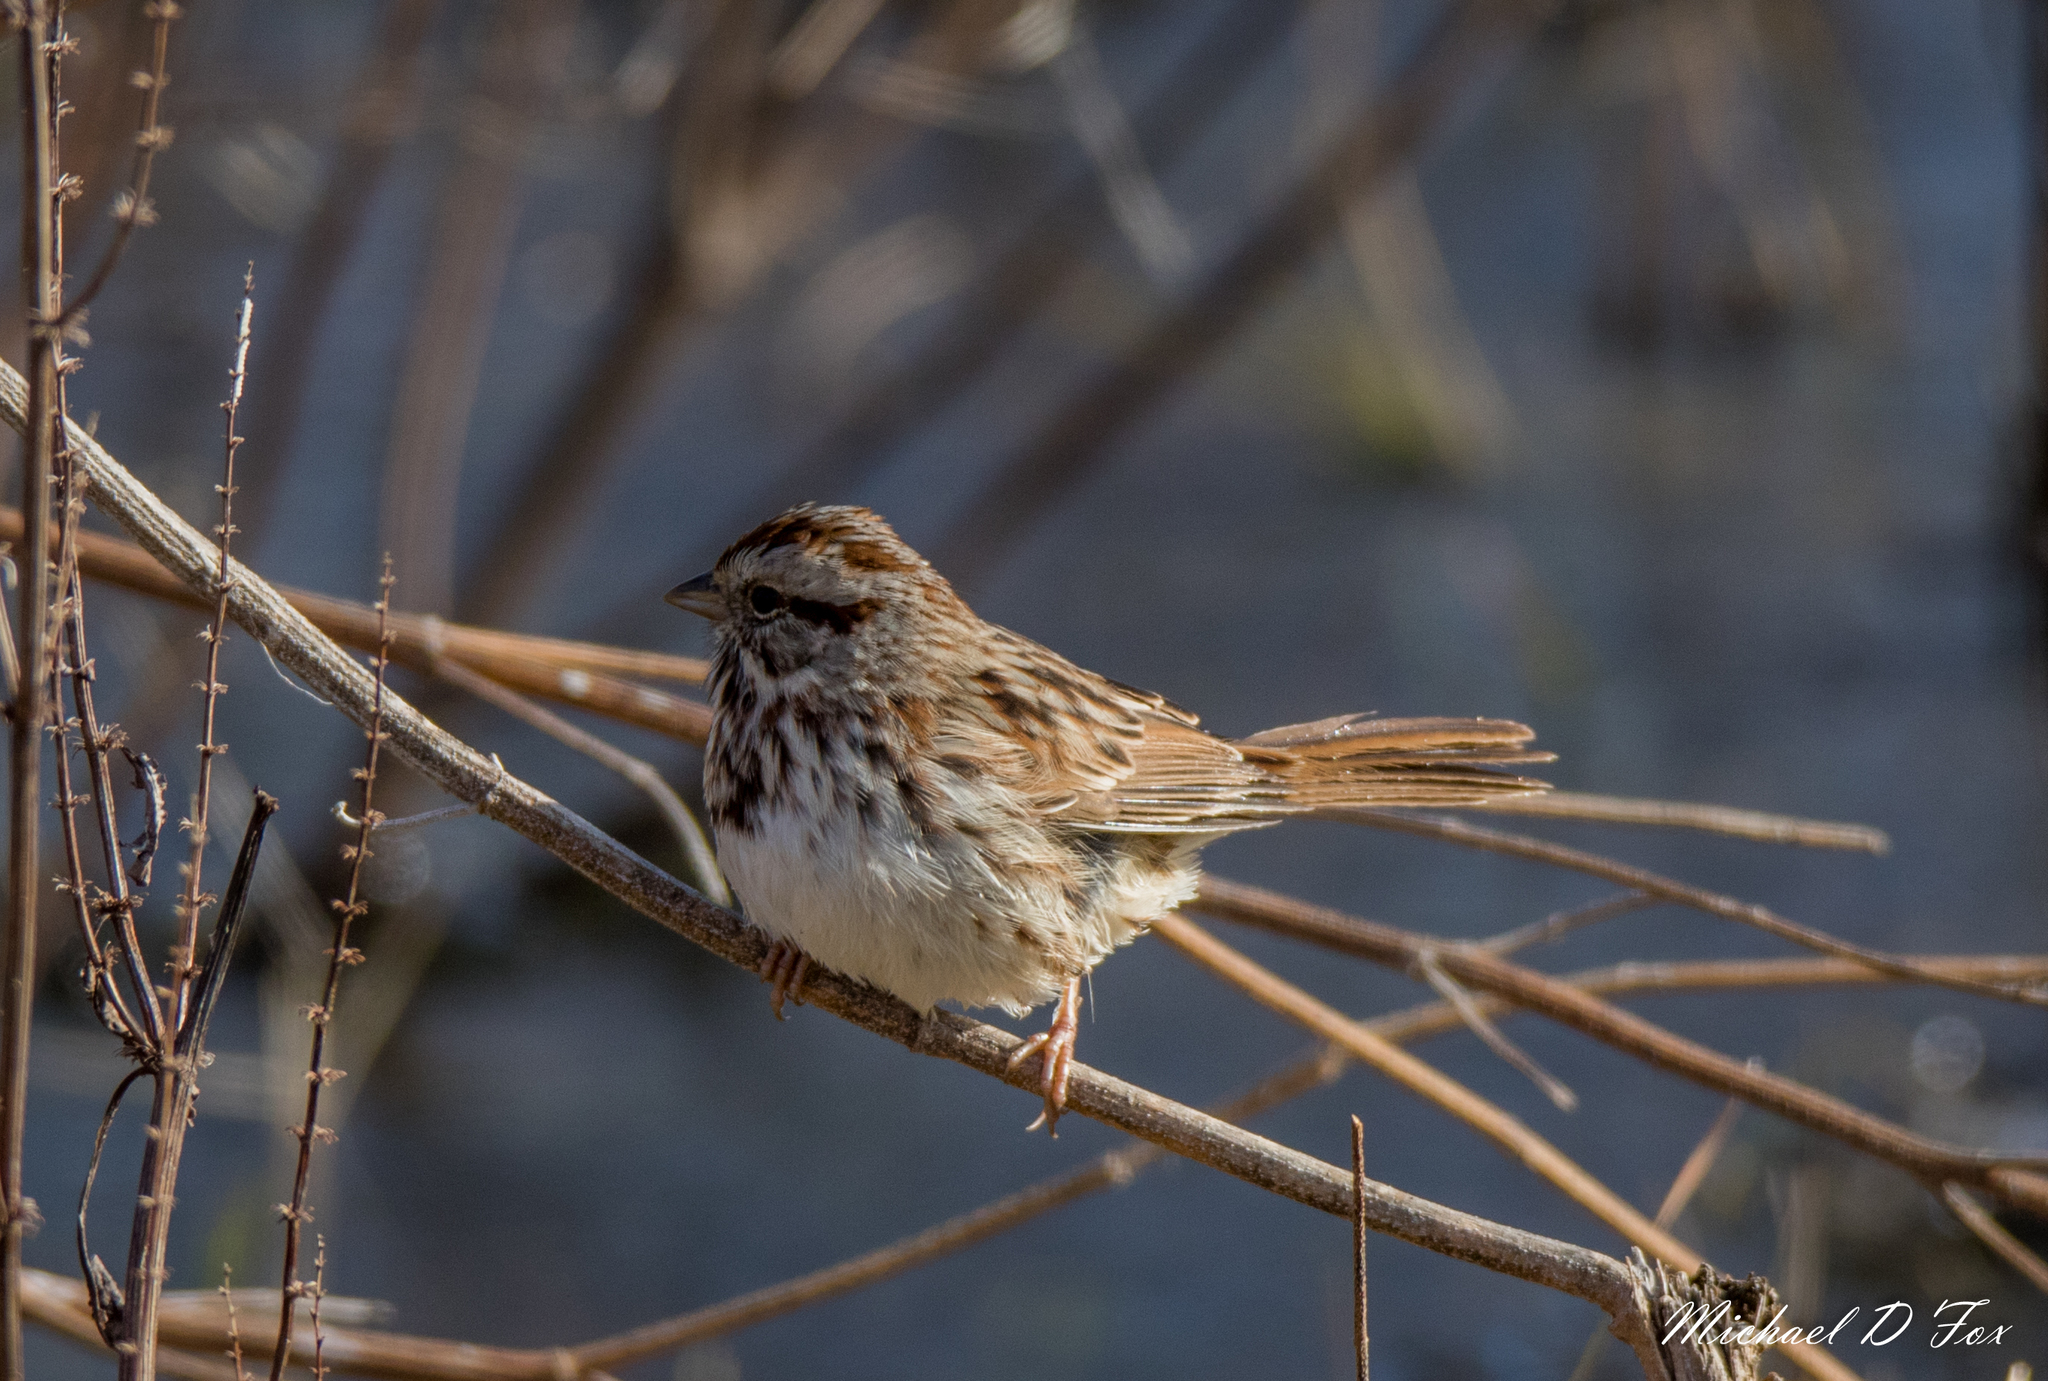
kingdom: Animalia
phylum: Chordata
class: Aves
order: Passeriformes
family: Passerellidae
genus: Melospiza
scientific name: Melospiza melodia
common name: Song sparrow
